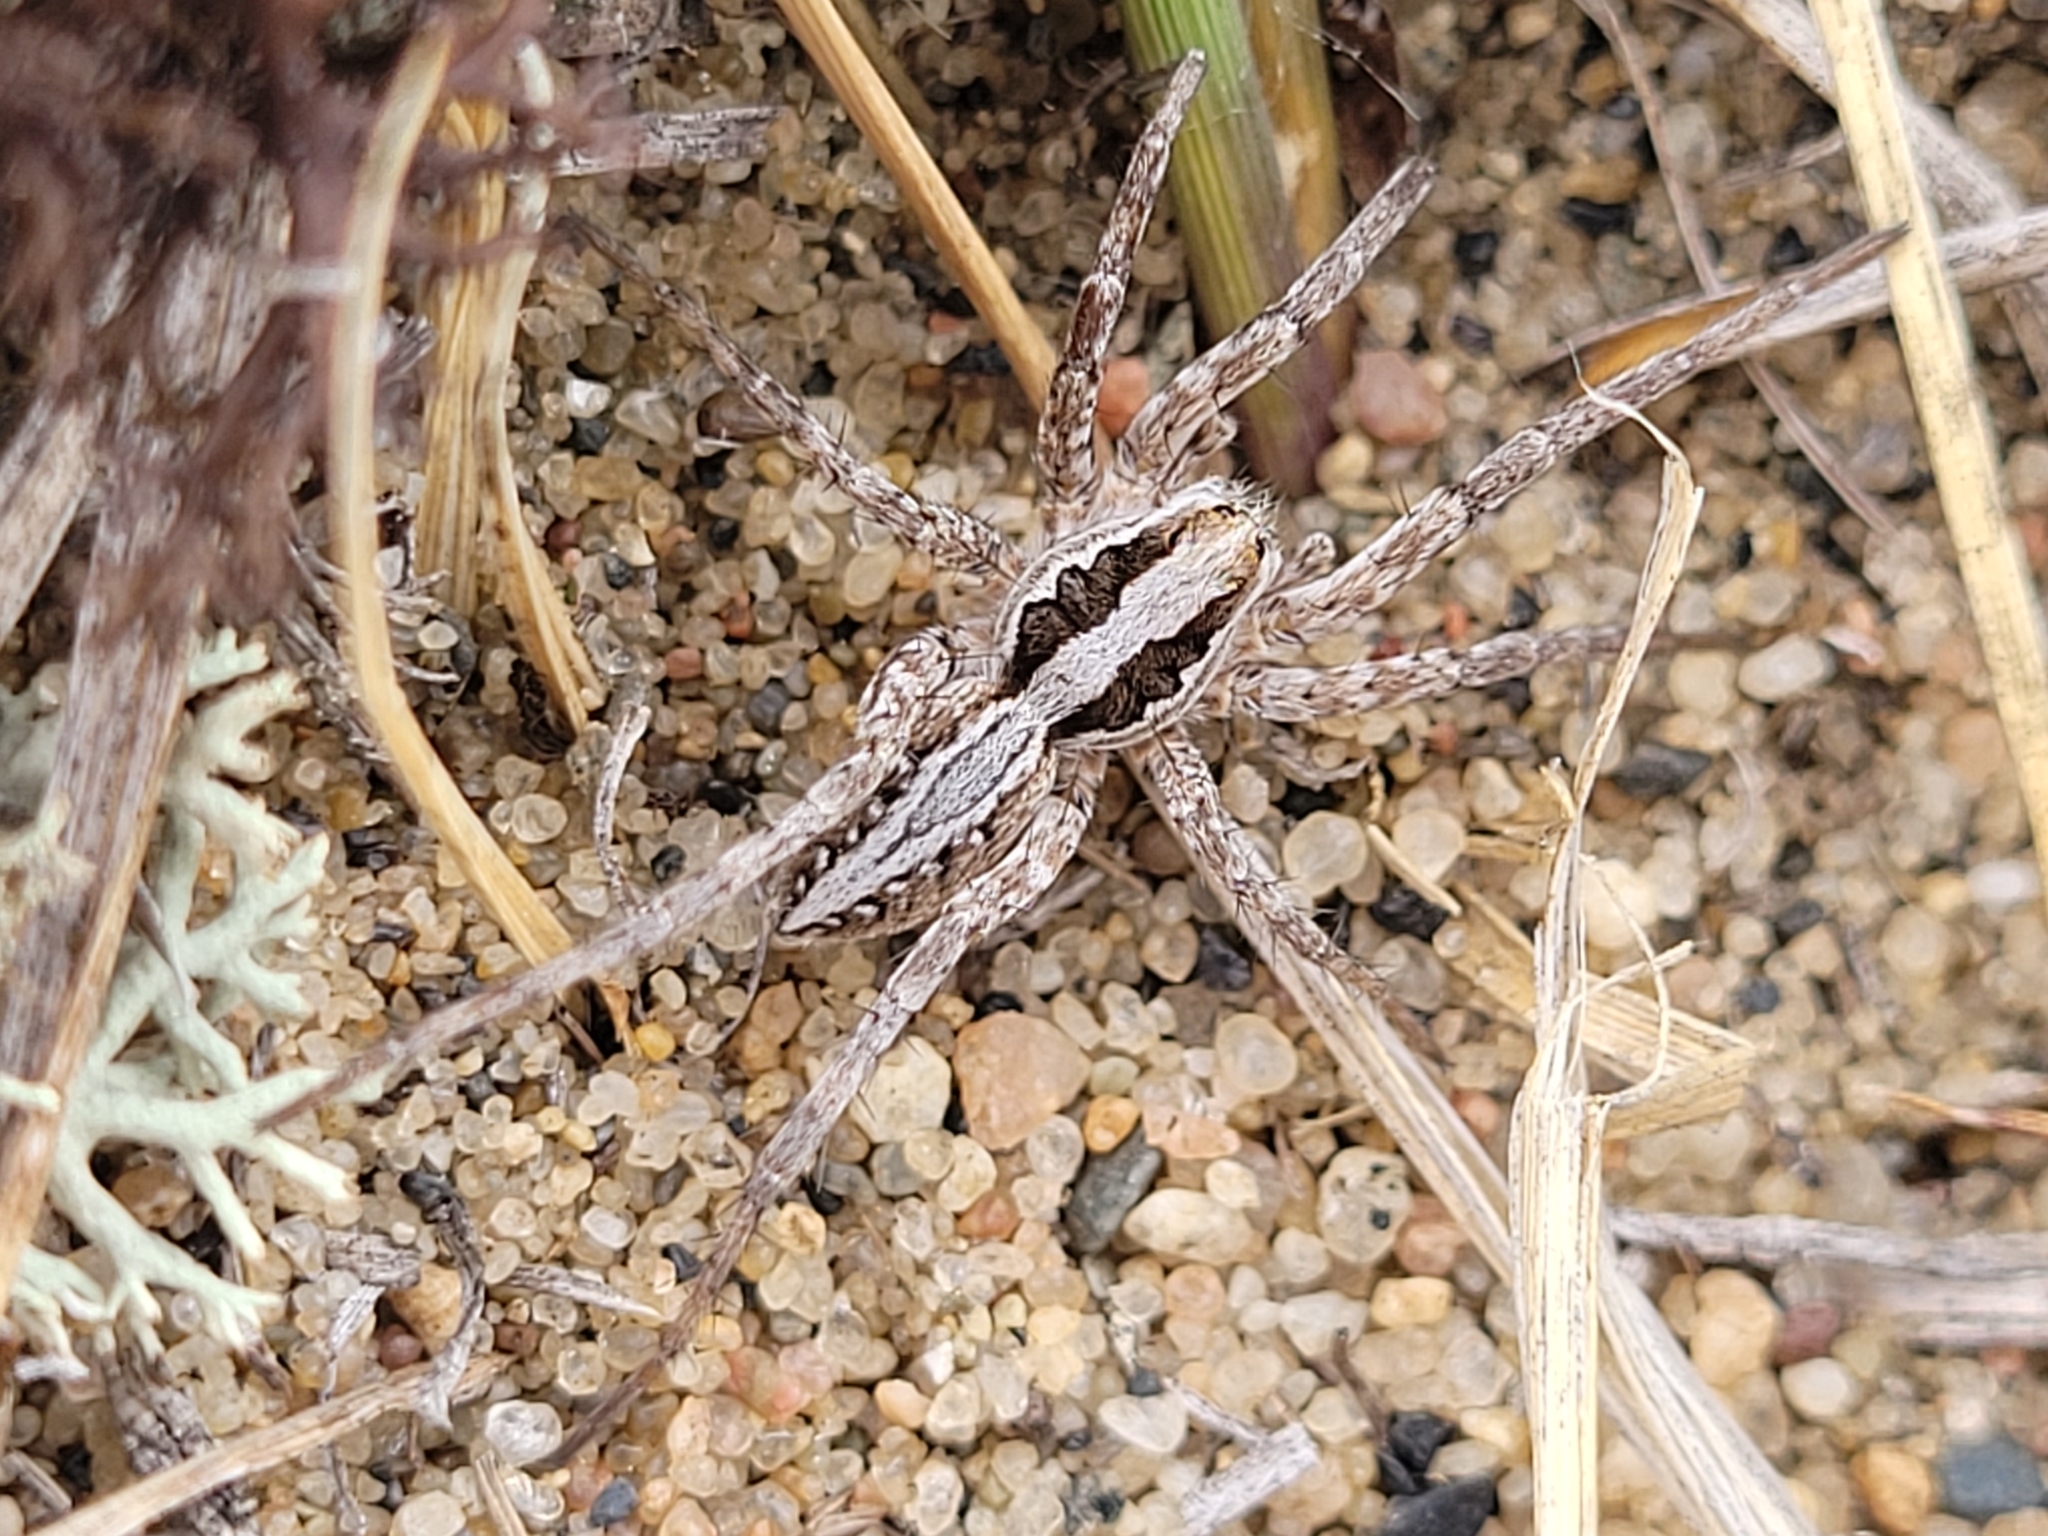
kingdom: Animalia
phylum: Arthropoda
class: Arachnida
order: Araneae
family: Lycosidae
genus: Schizocosa
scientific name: Schizocosa mccooki
